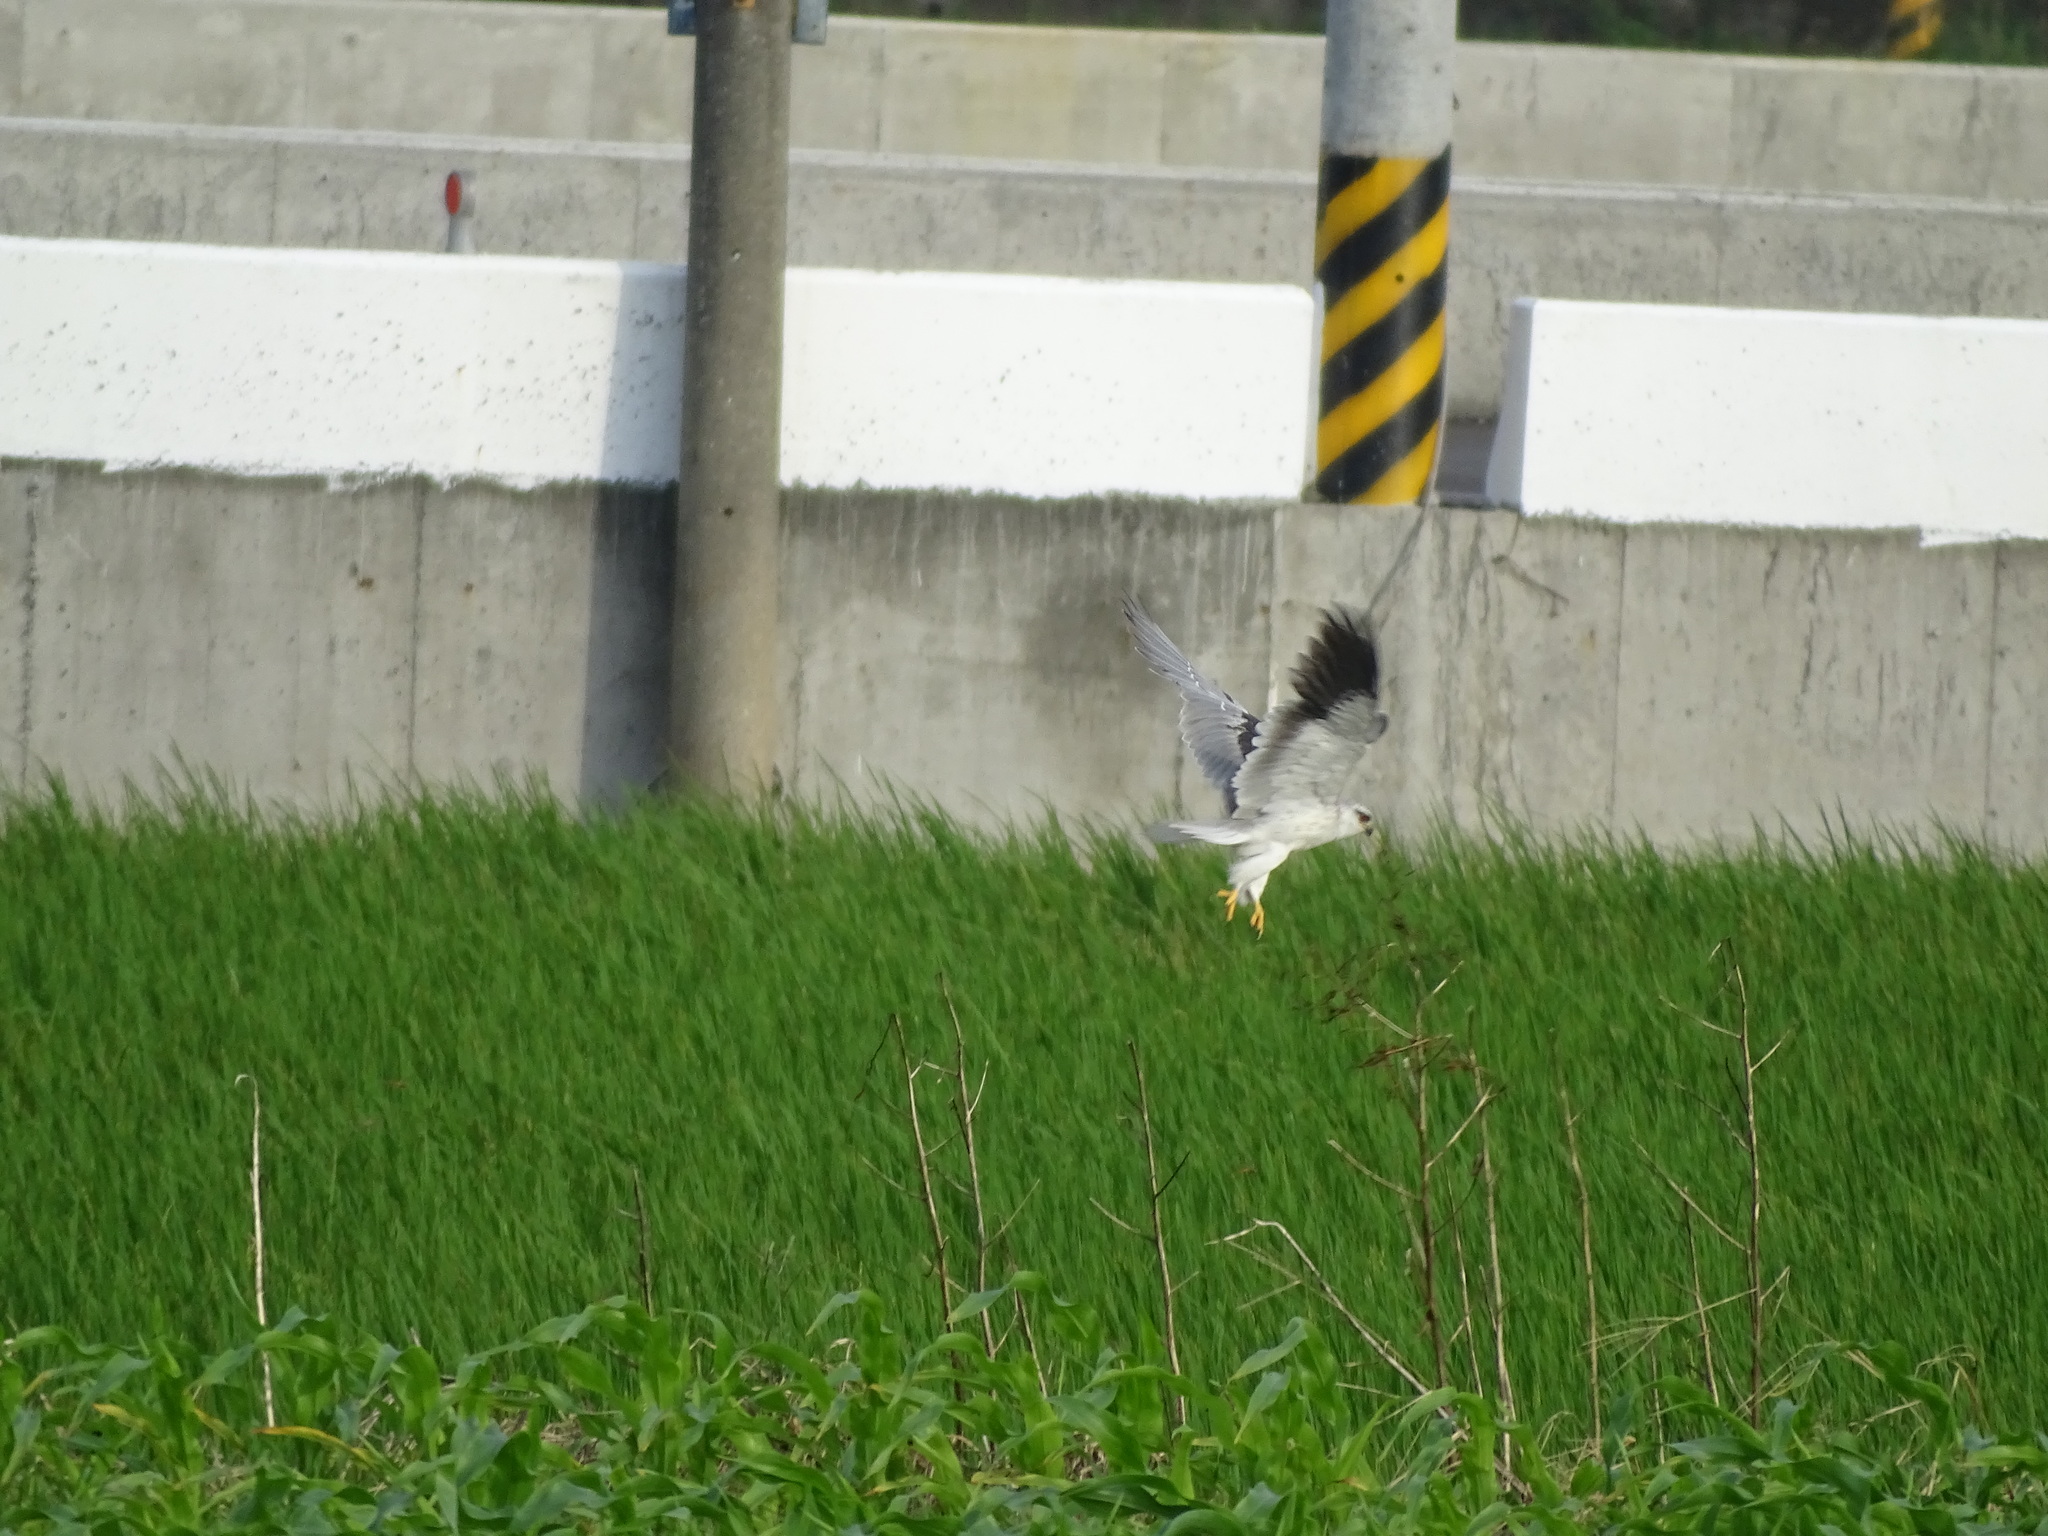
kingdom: Animalia
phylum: Chordata
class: Aves
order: Accipitriformes
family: Accipitridae
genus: Elanus
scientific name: Elanus caeruleus
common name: Black-winged kite
